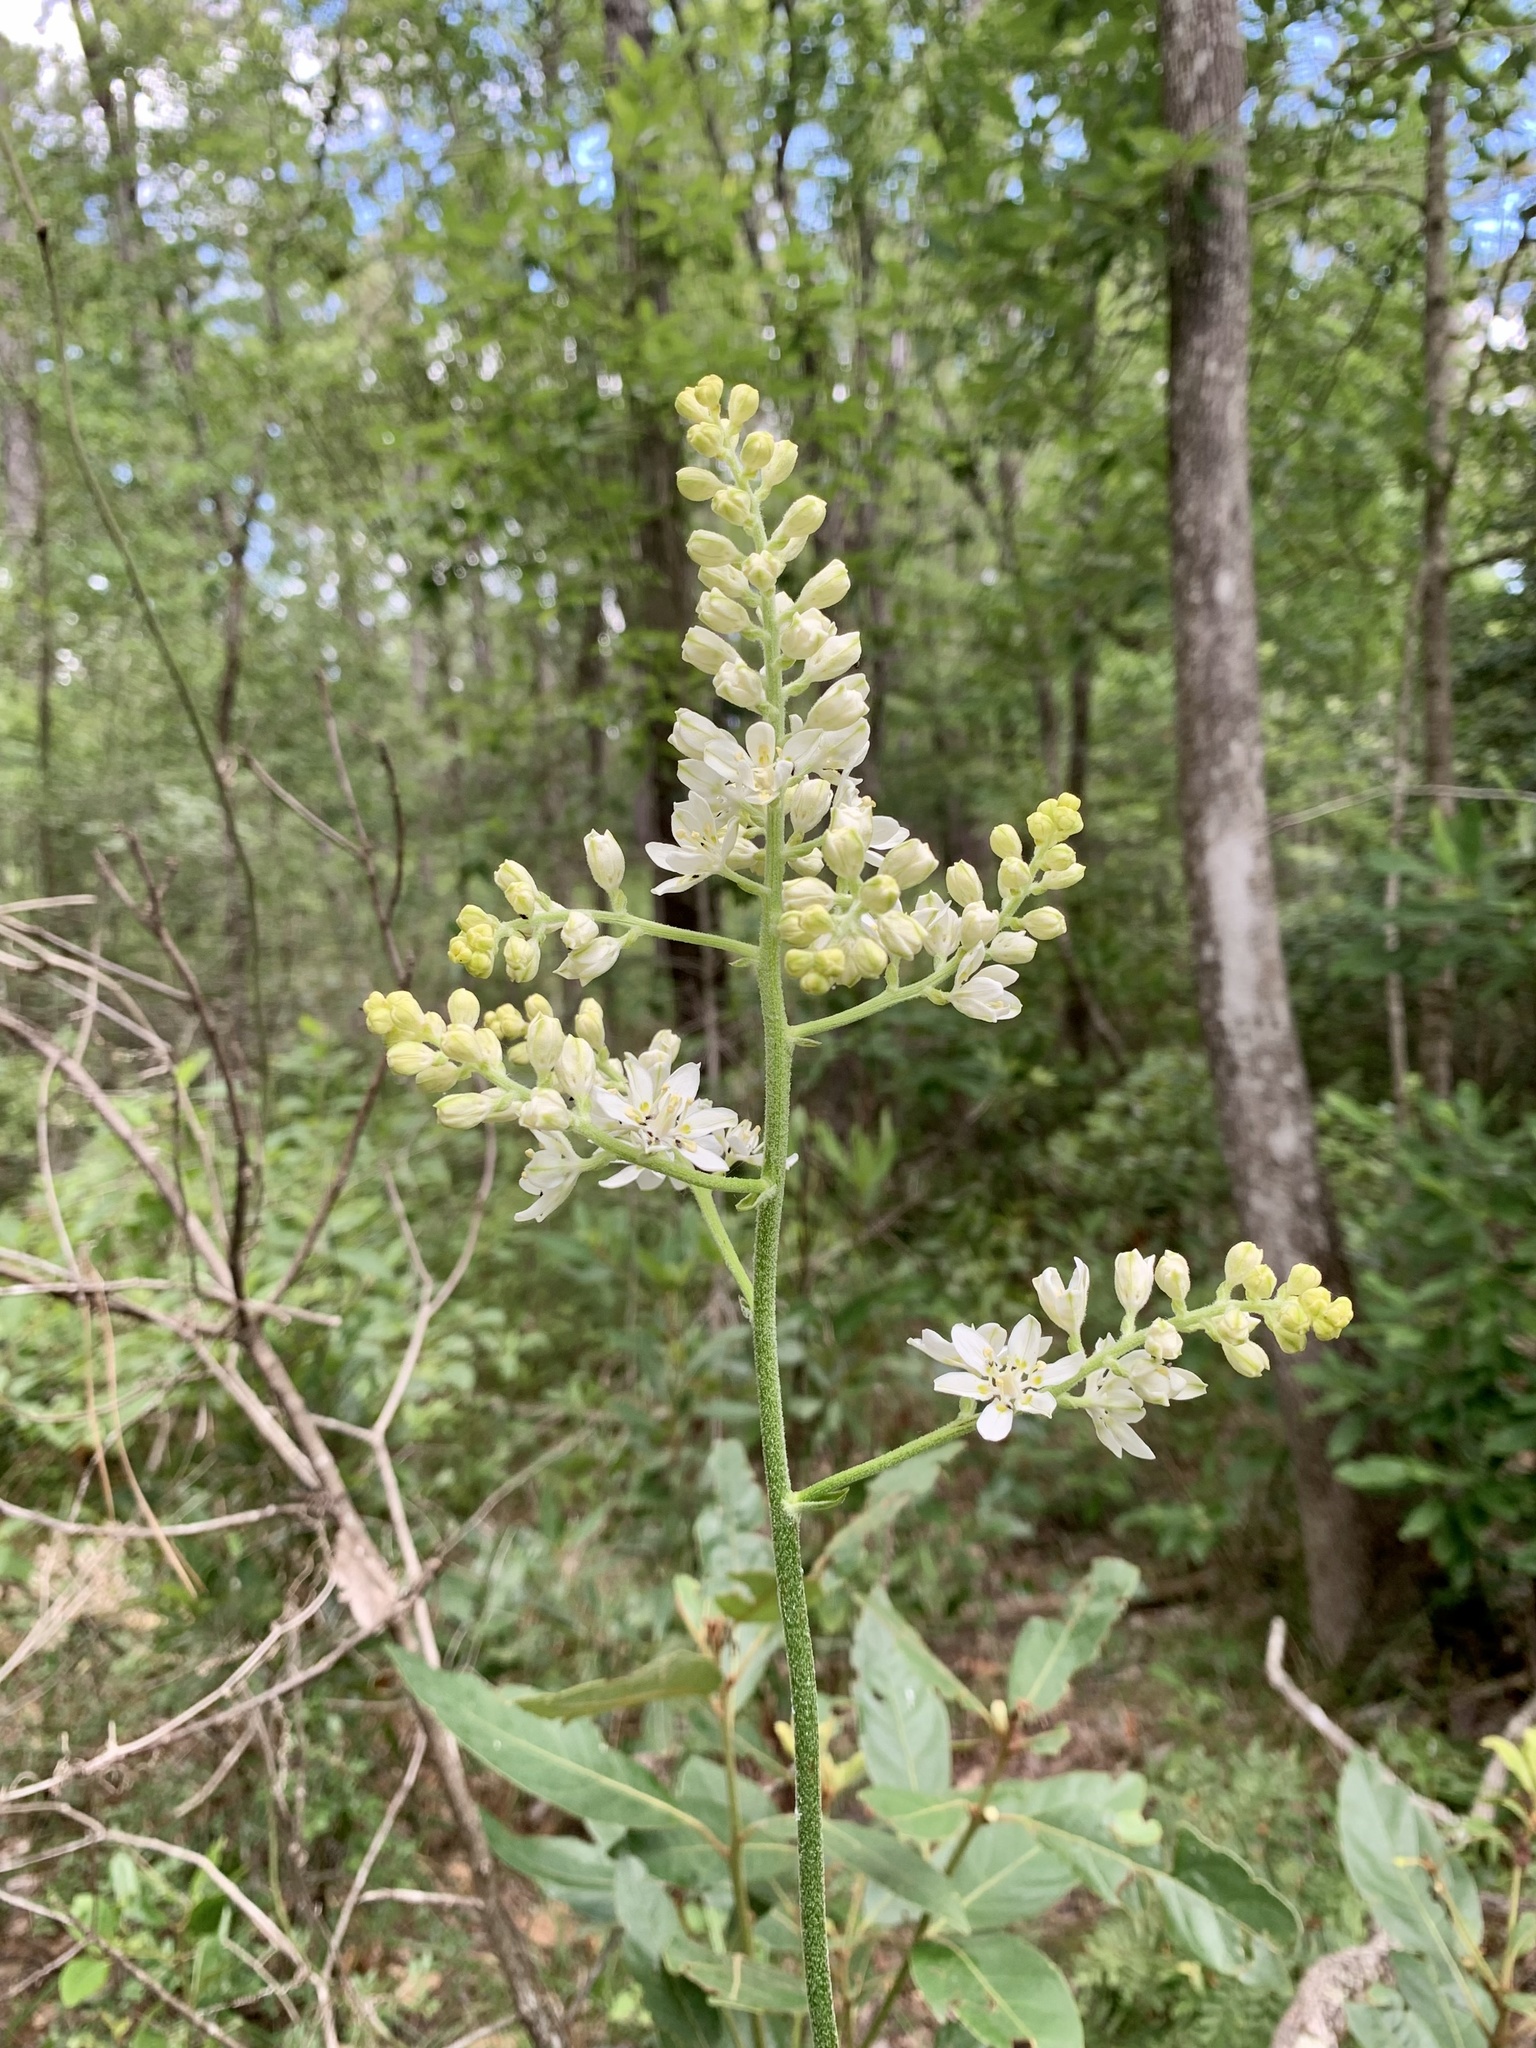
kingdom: Plantae
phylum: Tracheophyta
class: Liliopsida
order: Liliales
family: Melanthiaceae
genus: Melanthium
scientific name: Melanthium virginicum
